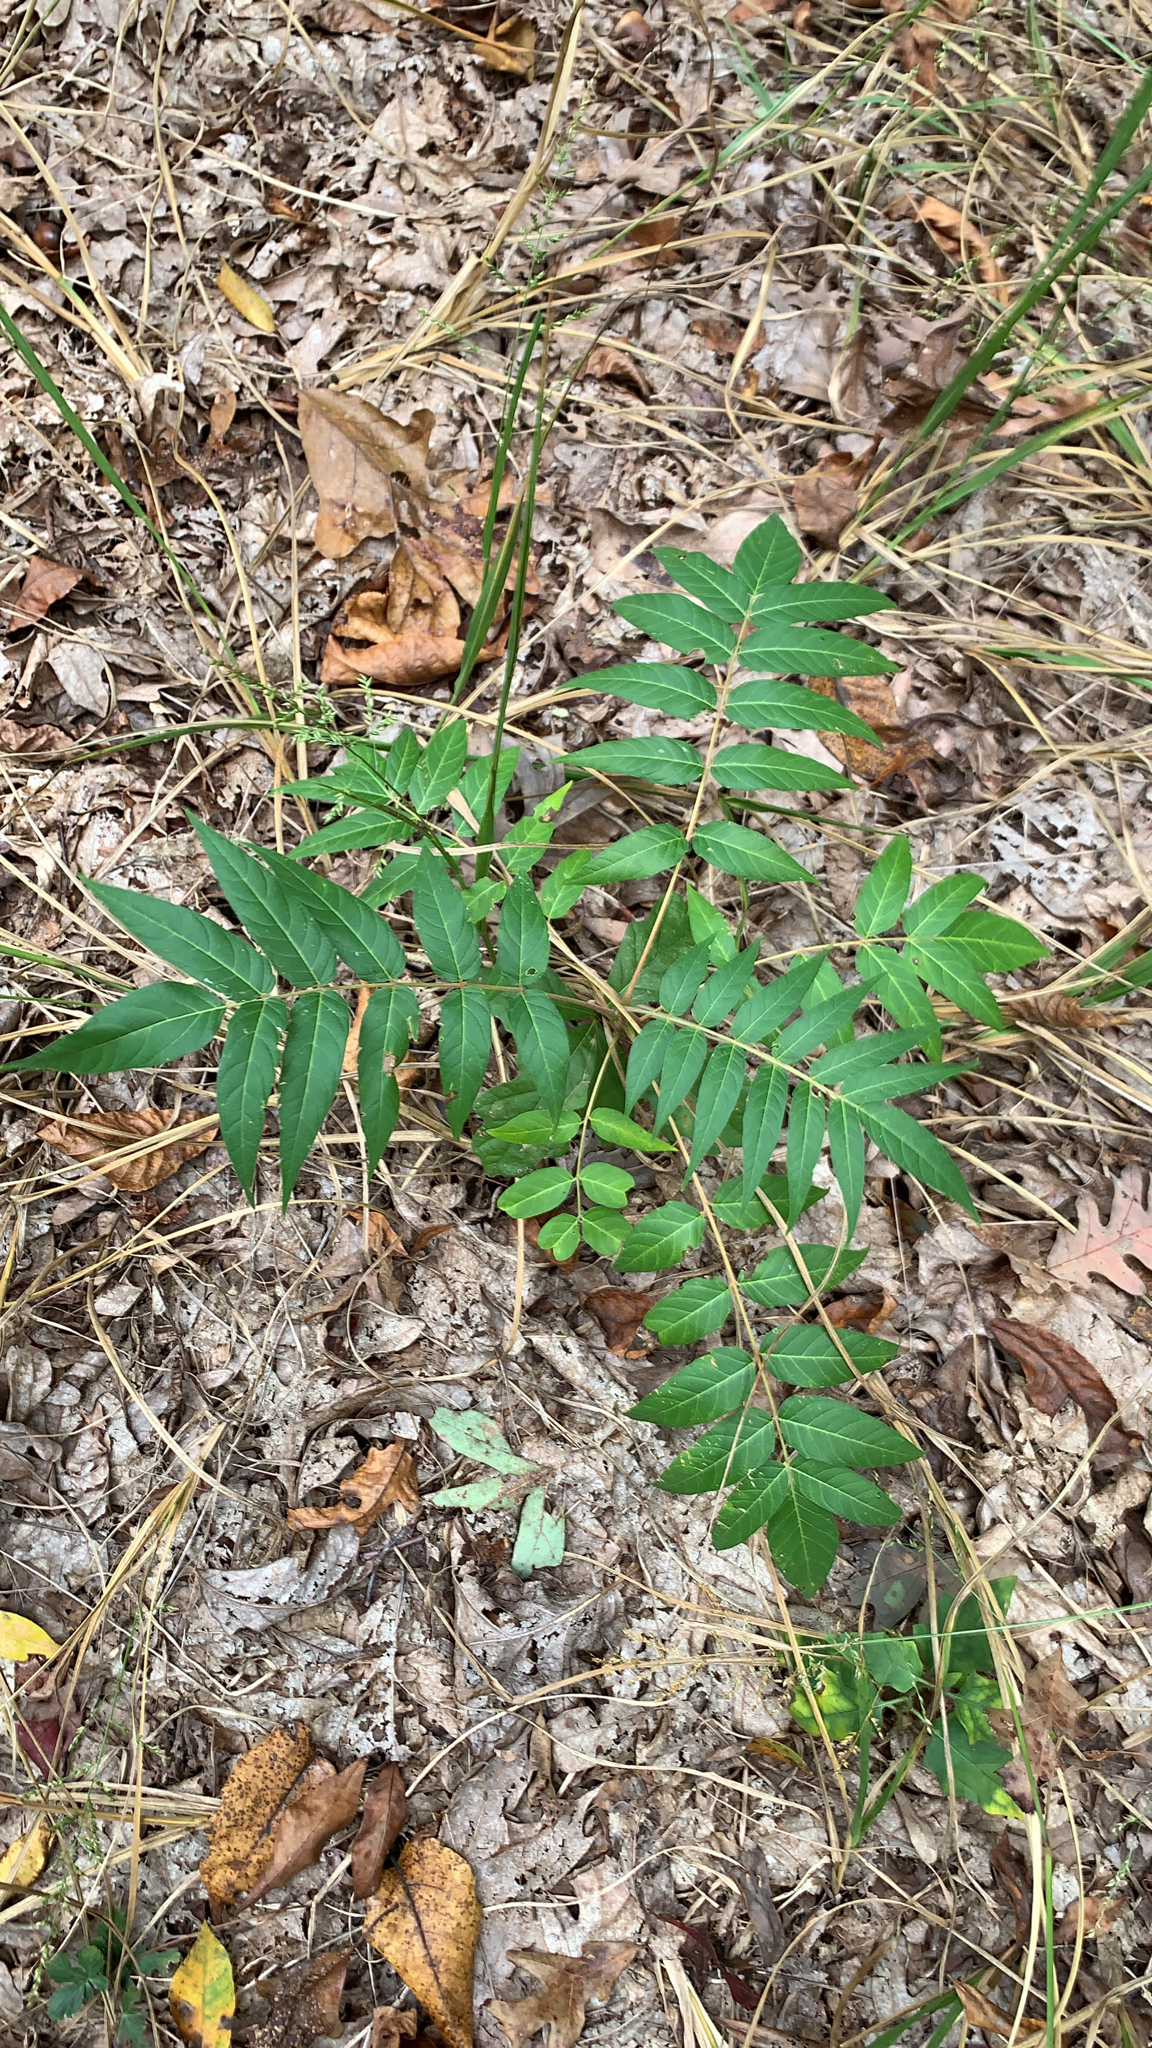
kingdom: Plantae
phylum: Tracheophyta
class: Magnoliopsida
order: Sapindales
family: Simaroubaceae
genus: Ailanthus
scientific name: Ailanthus altissima
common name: Tree-of-heaven
